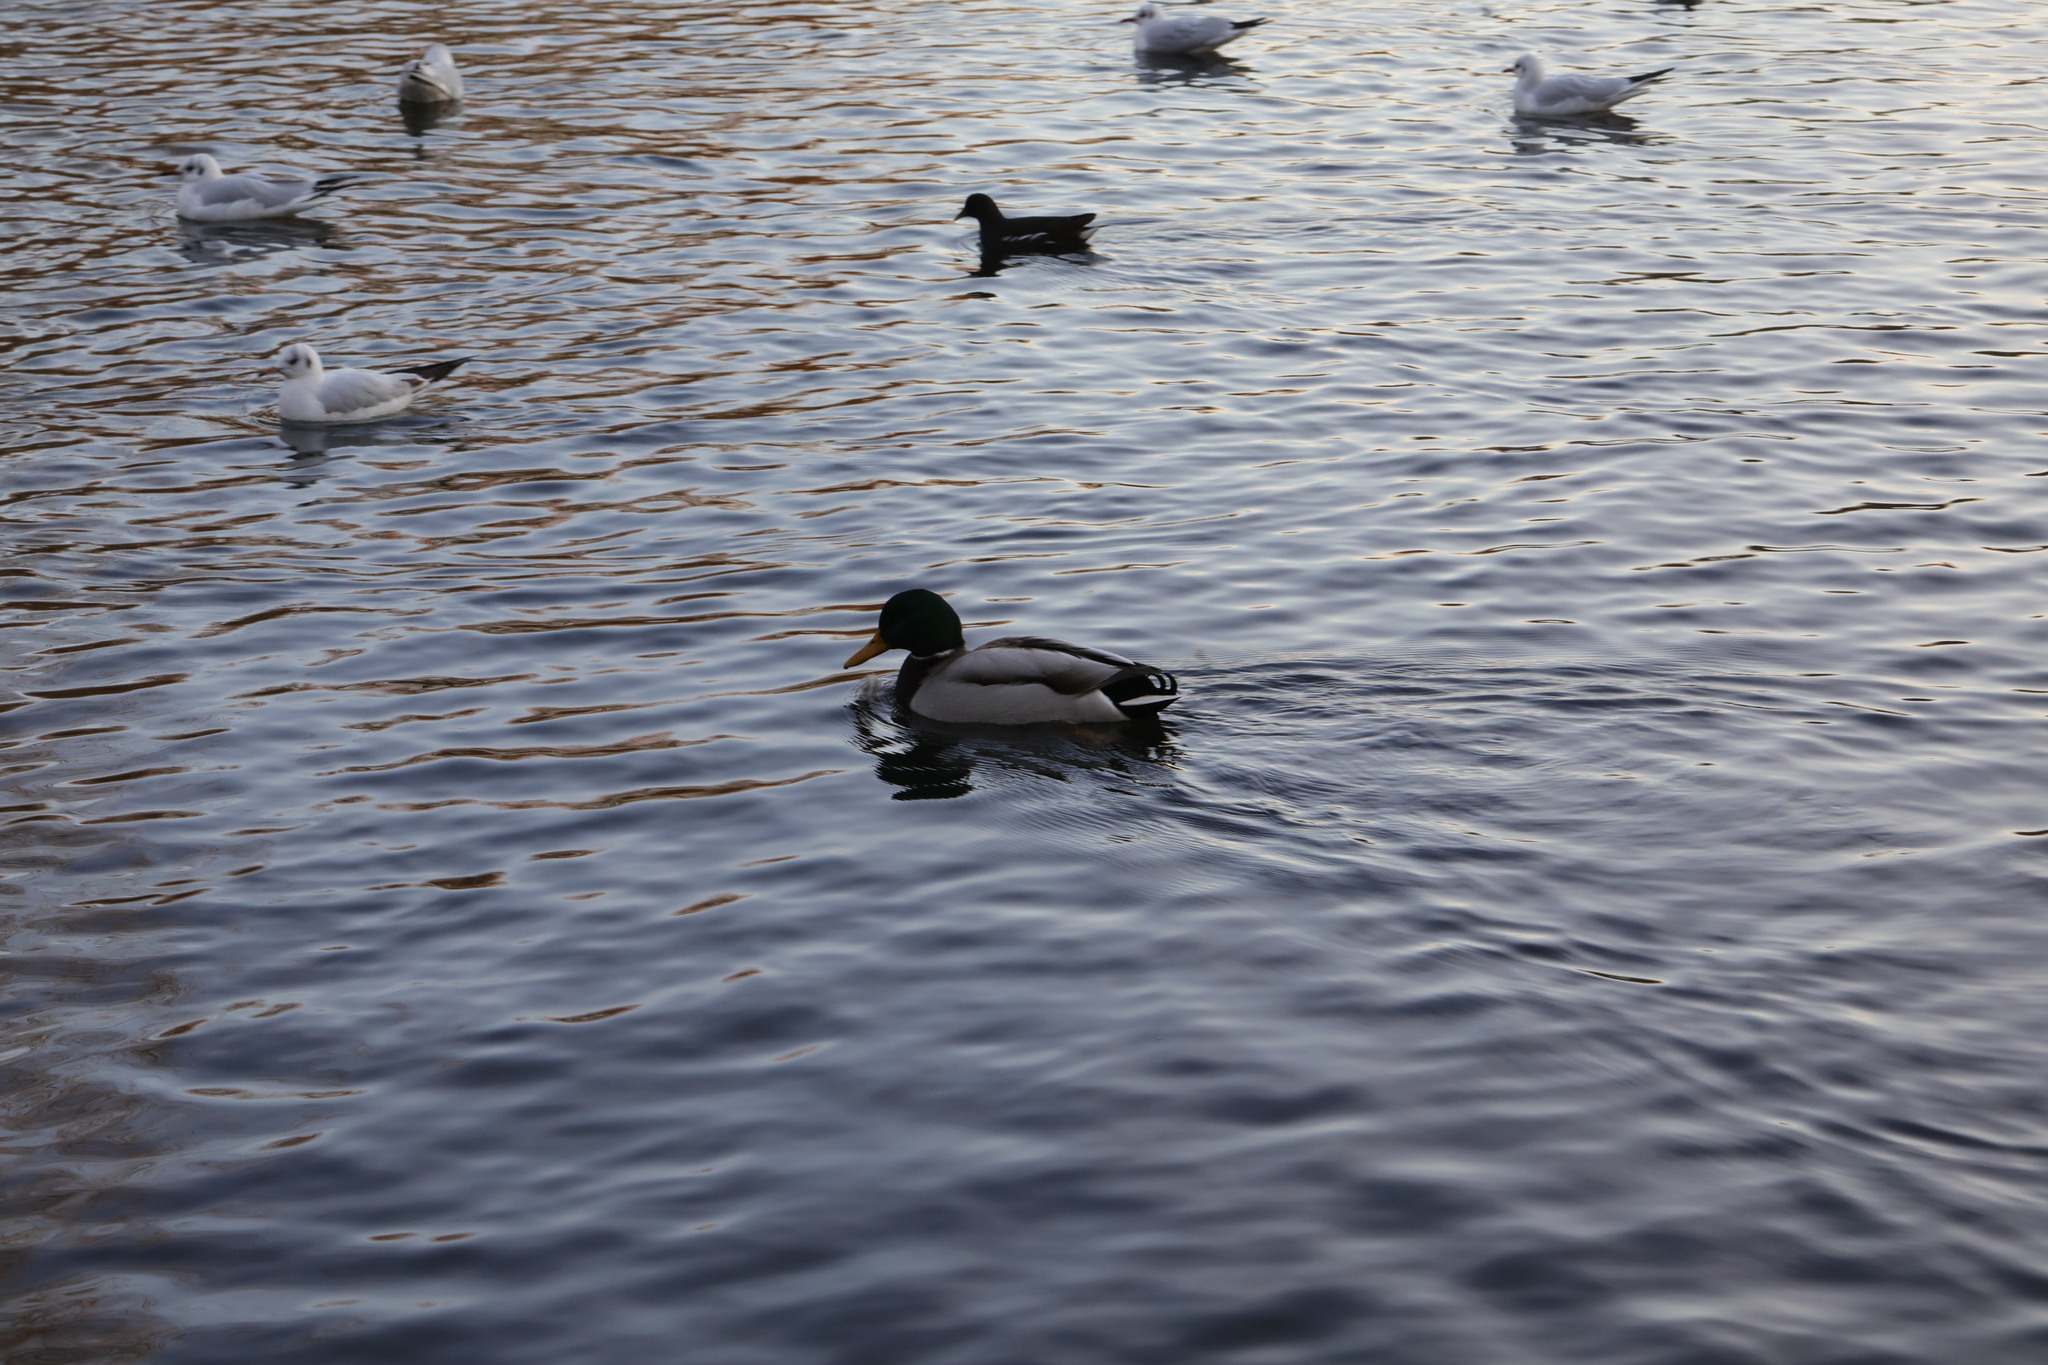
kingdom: Animalia
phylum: Chordata
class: Aves
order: Anseriformes
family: Anatidae
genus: Anas
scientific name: Anas platyrhynchos
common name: Mallard
